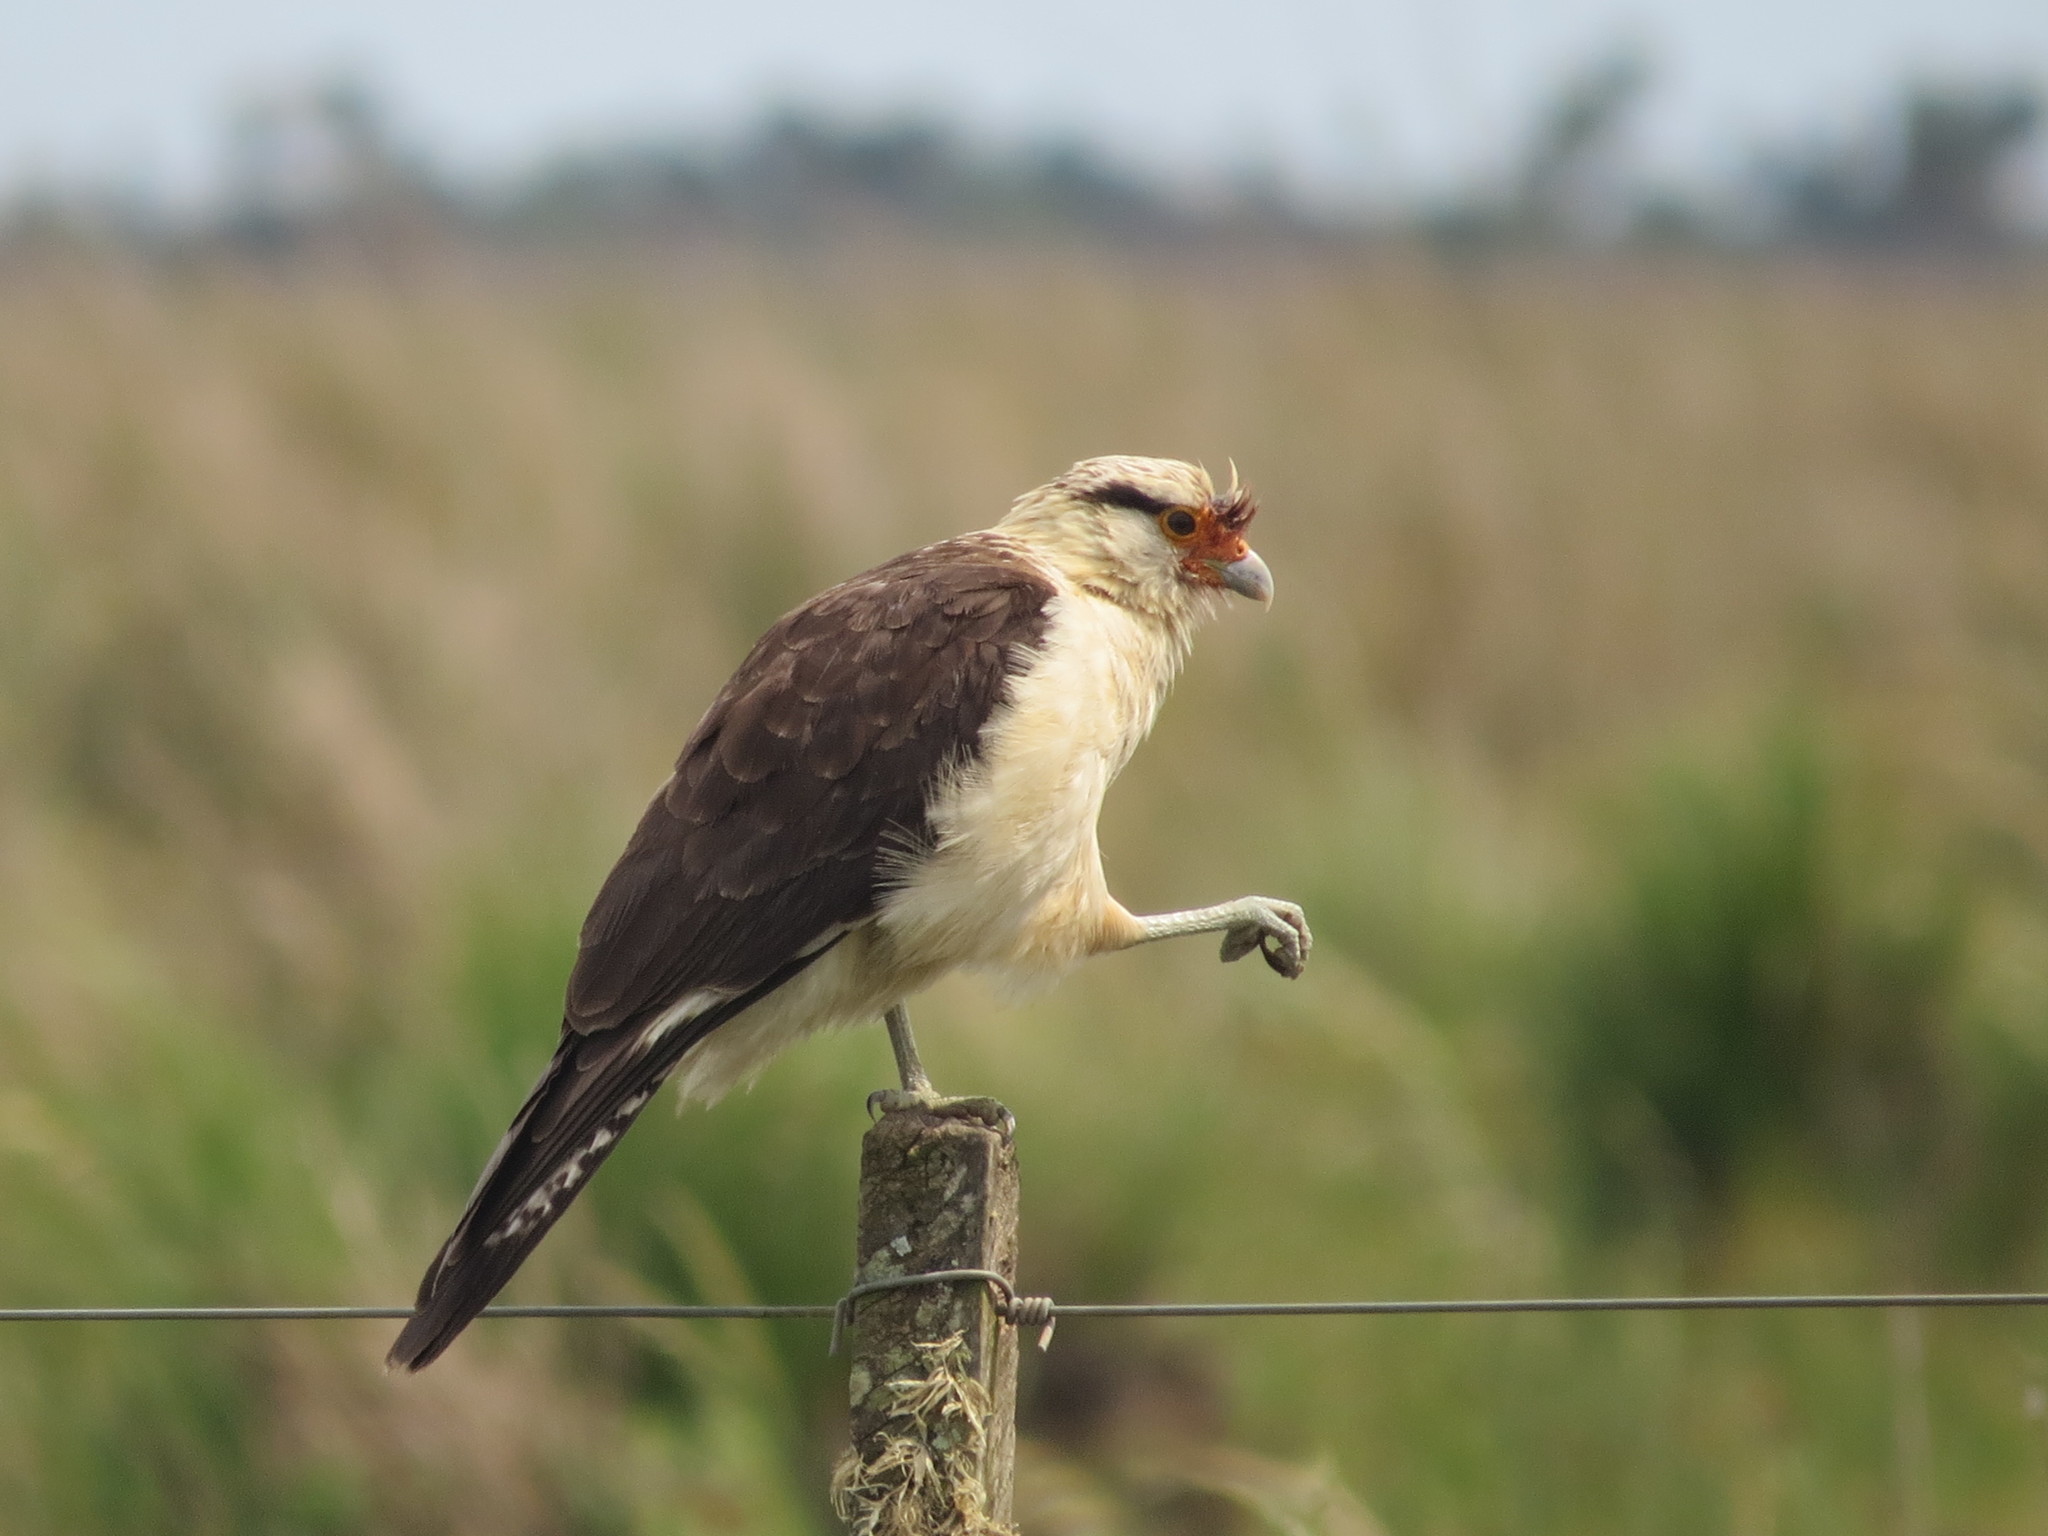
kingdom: Animalia
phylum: Chordata
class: Aves
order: Falconiformes
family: Falconidae
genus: Daptrius
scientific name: Daptrius
